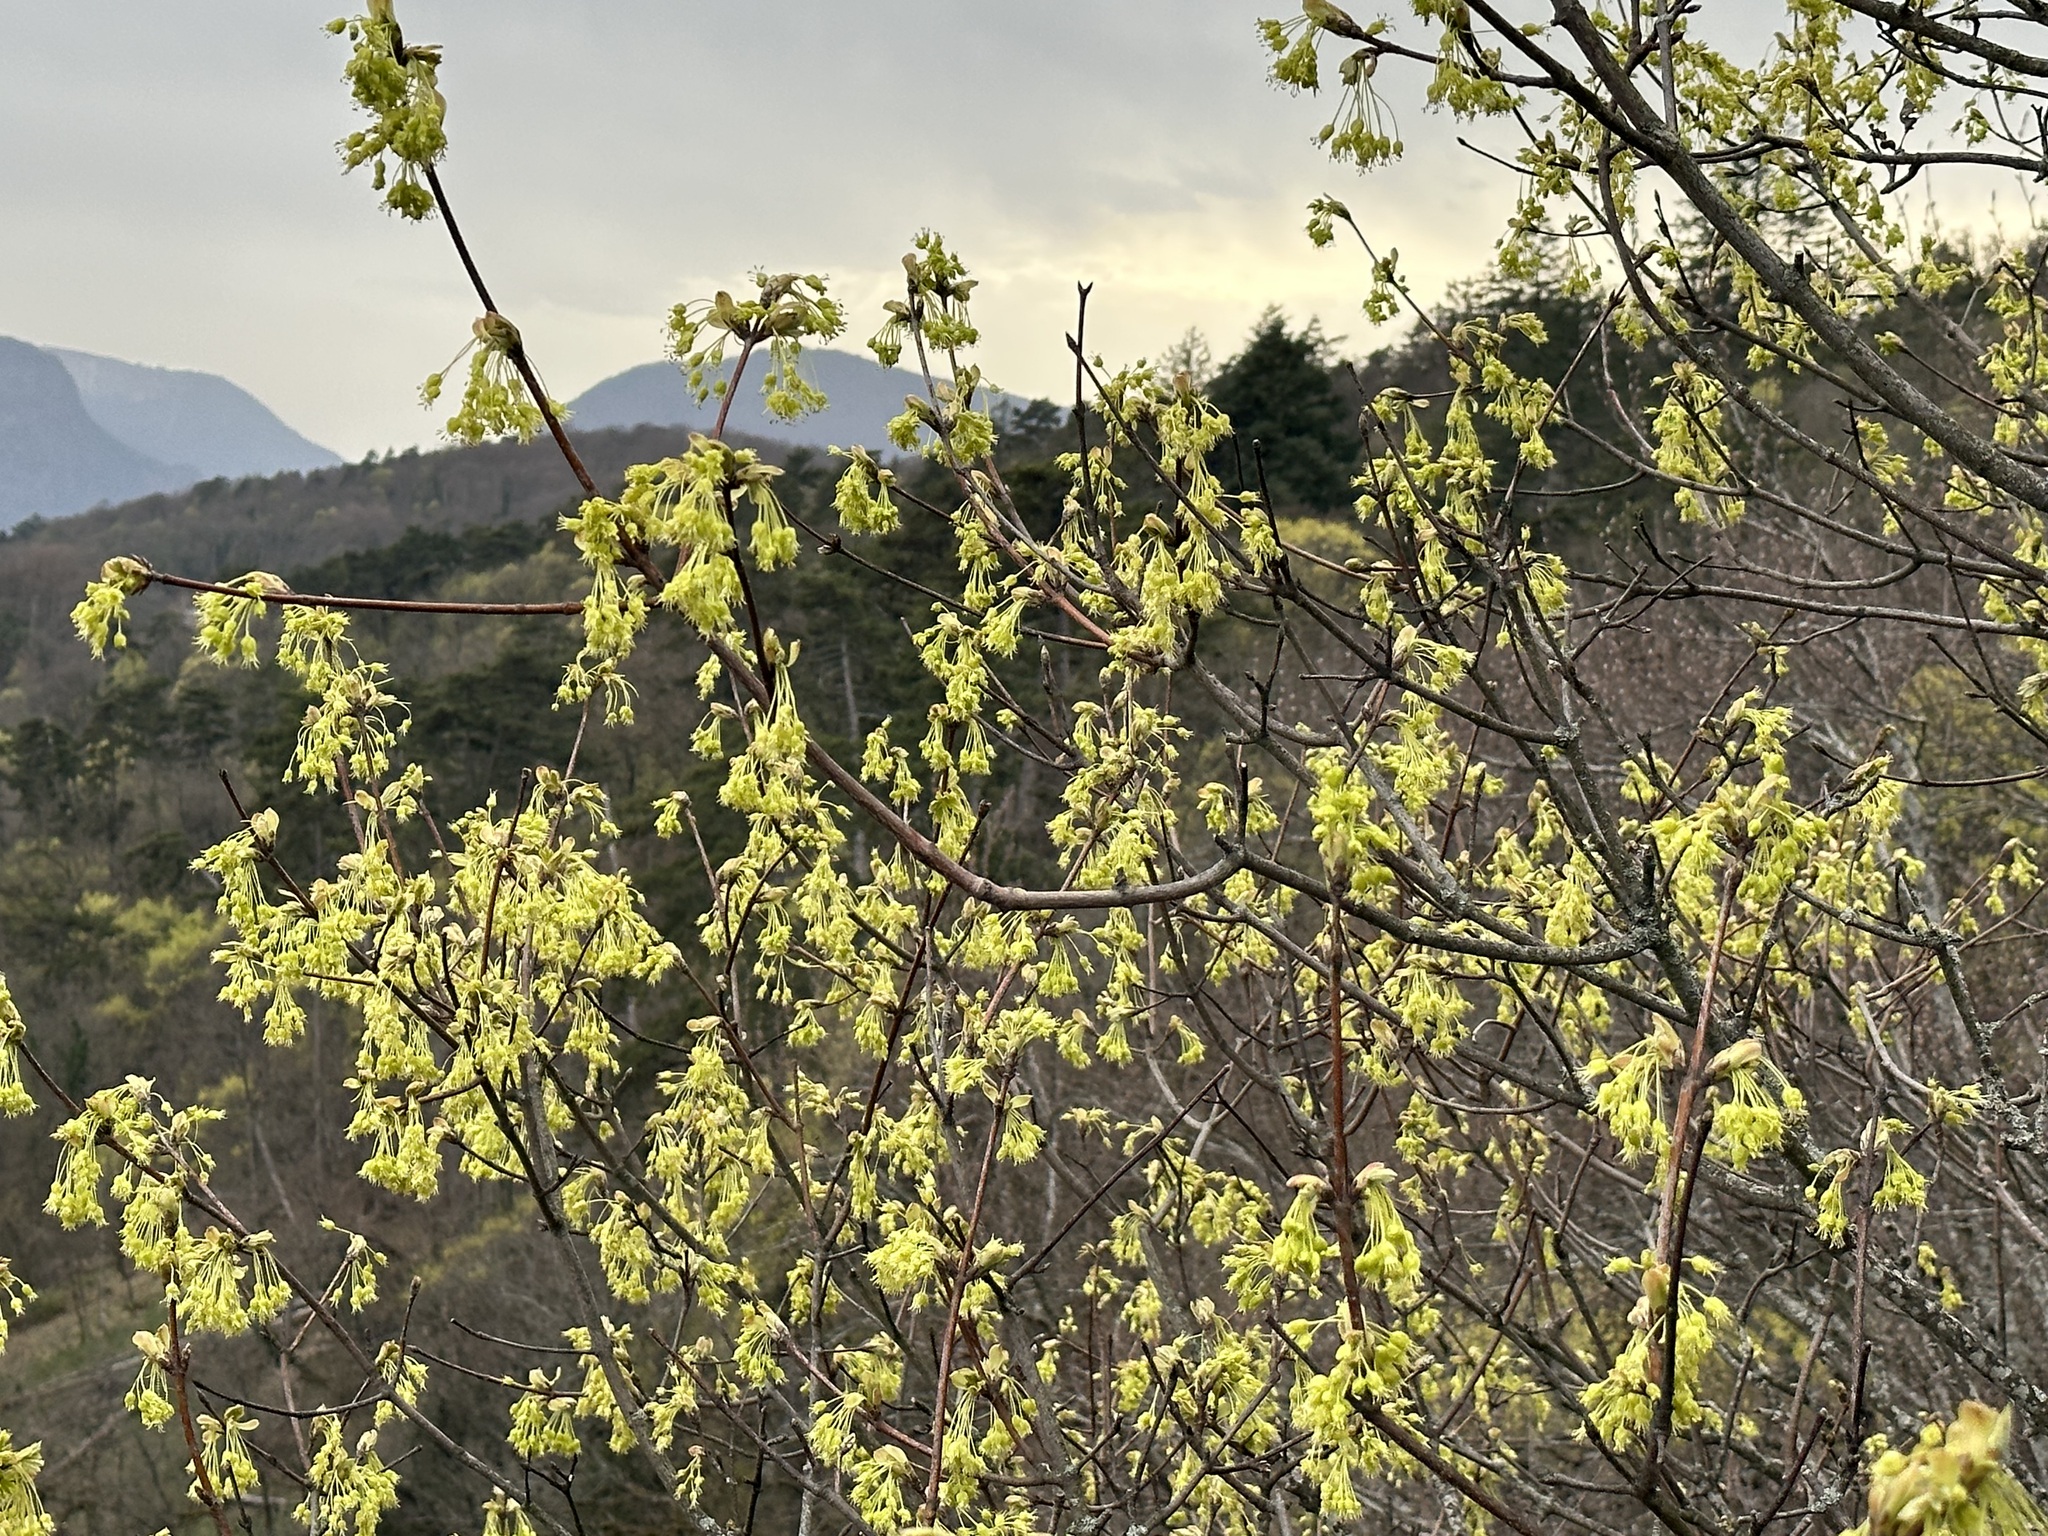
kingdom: Plantae
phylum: Tracheophyta
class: Magnoliopsida
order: Sapindales
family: Sapindaceae
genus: Acer
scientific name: Acer opalus
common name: Italian maple
